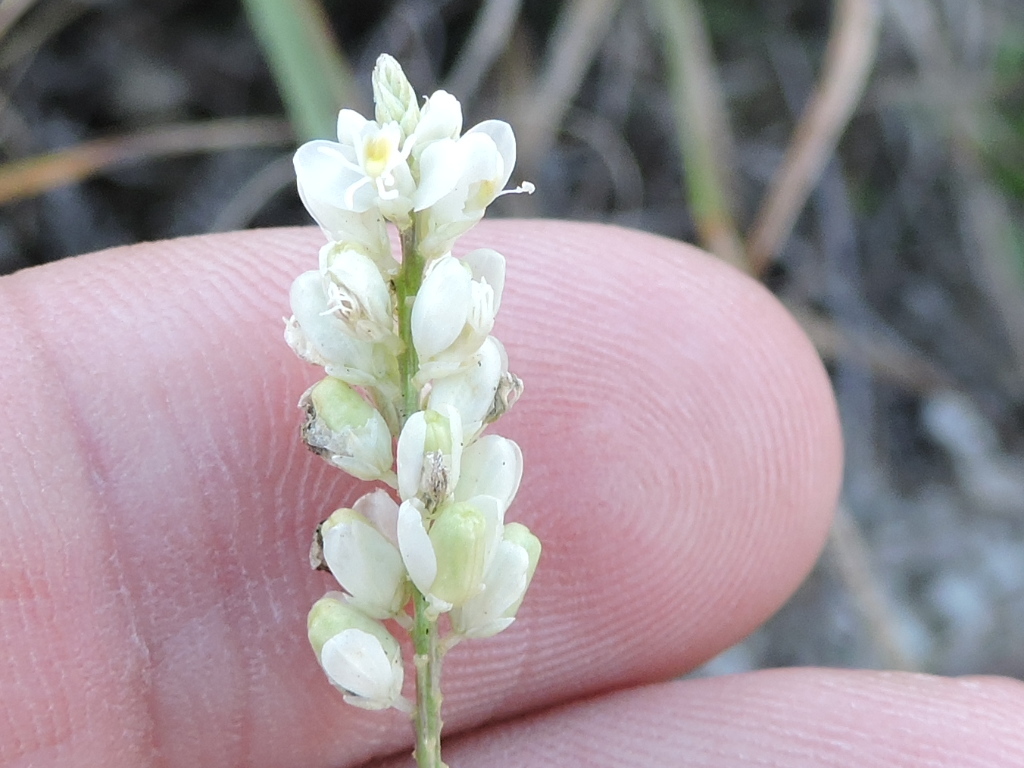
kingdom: Plantae
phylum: Tracheophyta
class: Magnoliopsida
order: Fabales
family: Polygalaceae
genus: Polygala
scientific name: Polygala alba
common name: White milkwort
